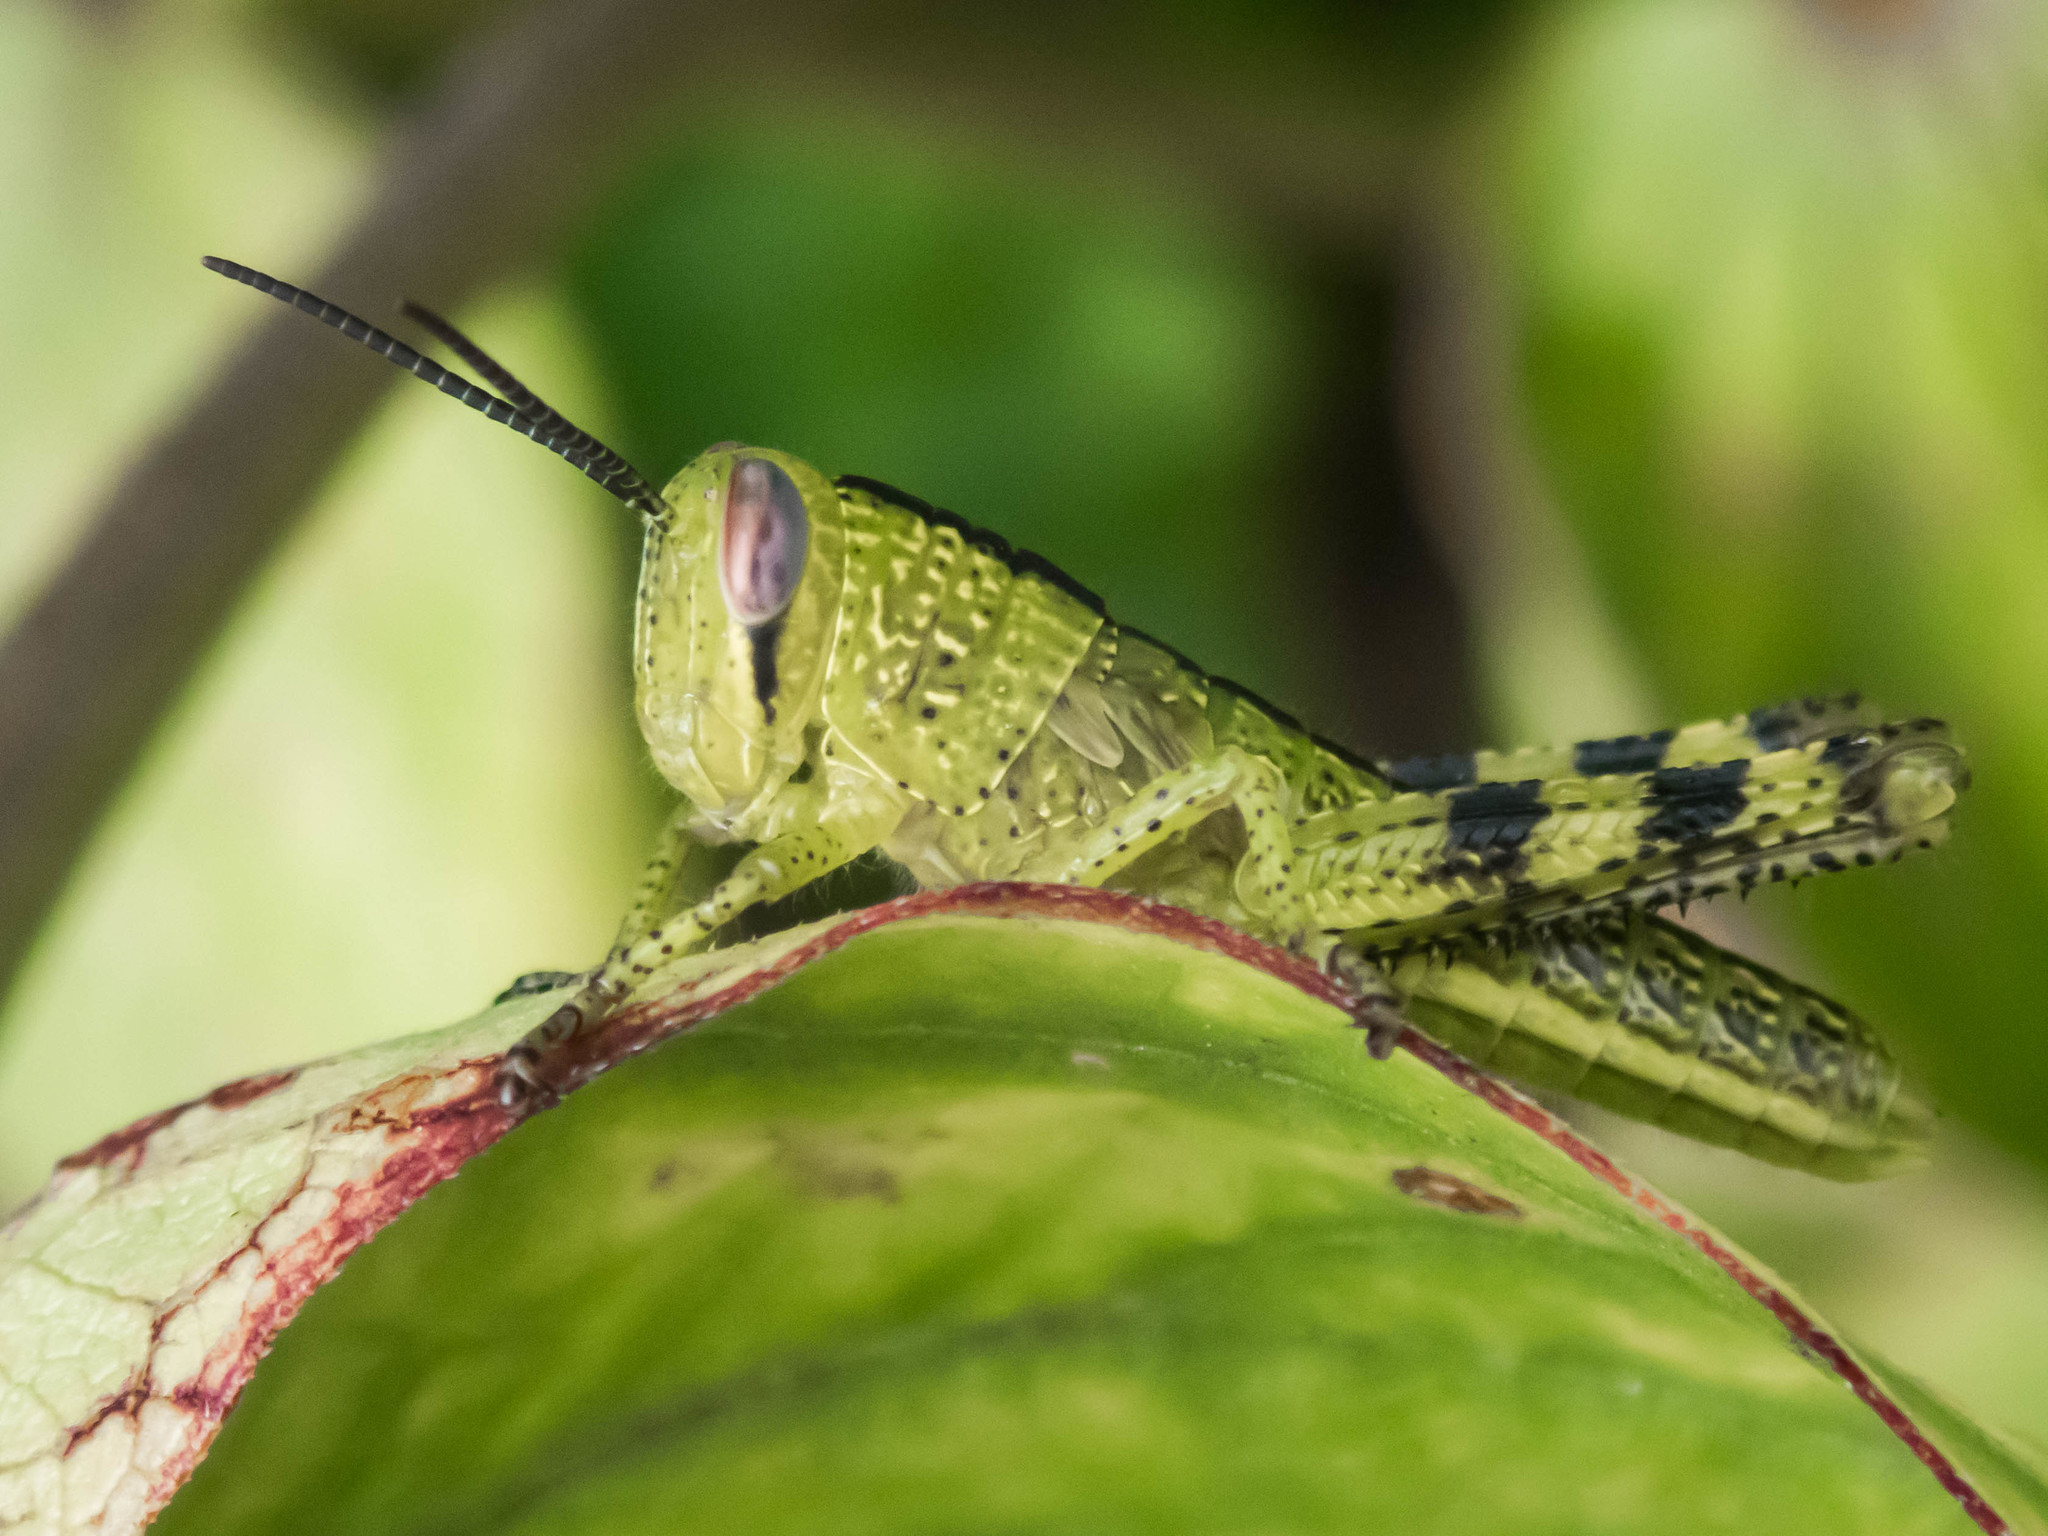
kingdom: Animalia
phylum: Arthropoda
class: Insecta
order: Orthoptera
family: Acrididae
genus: Valanga
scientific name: Valanga irregularis
